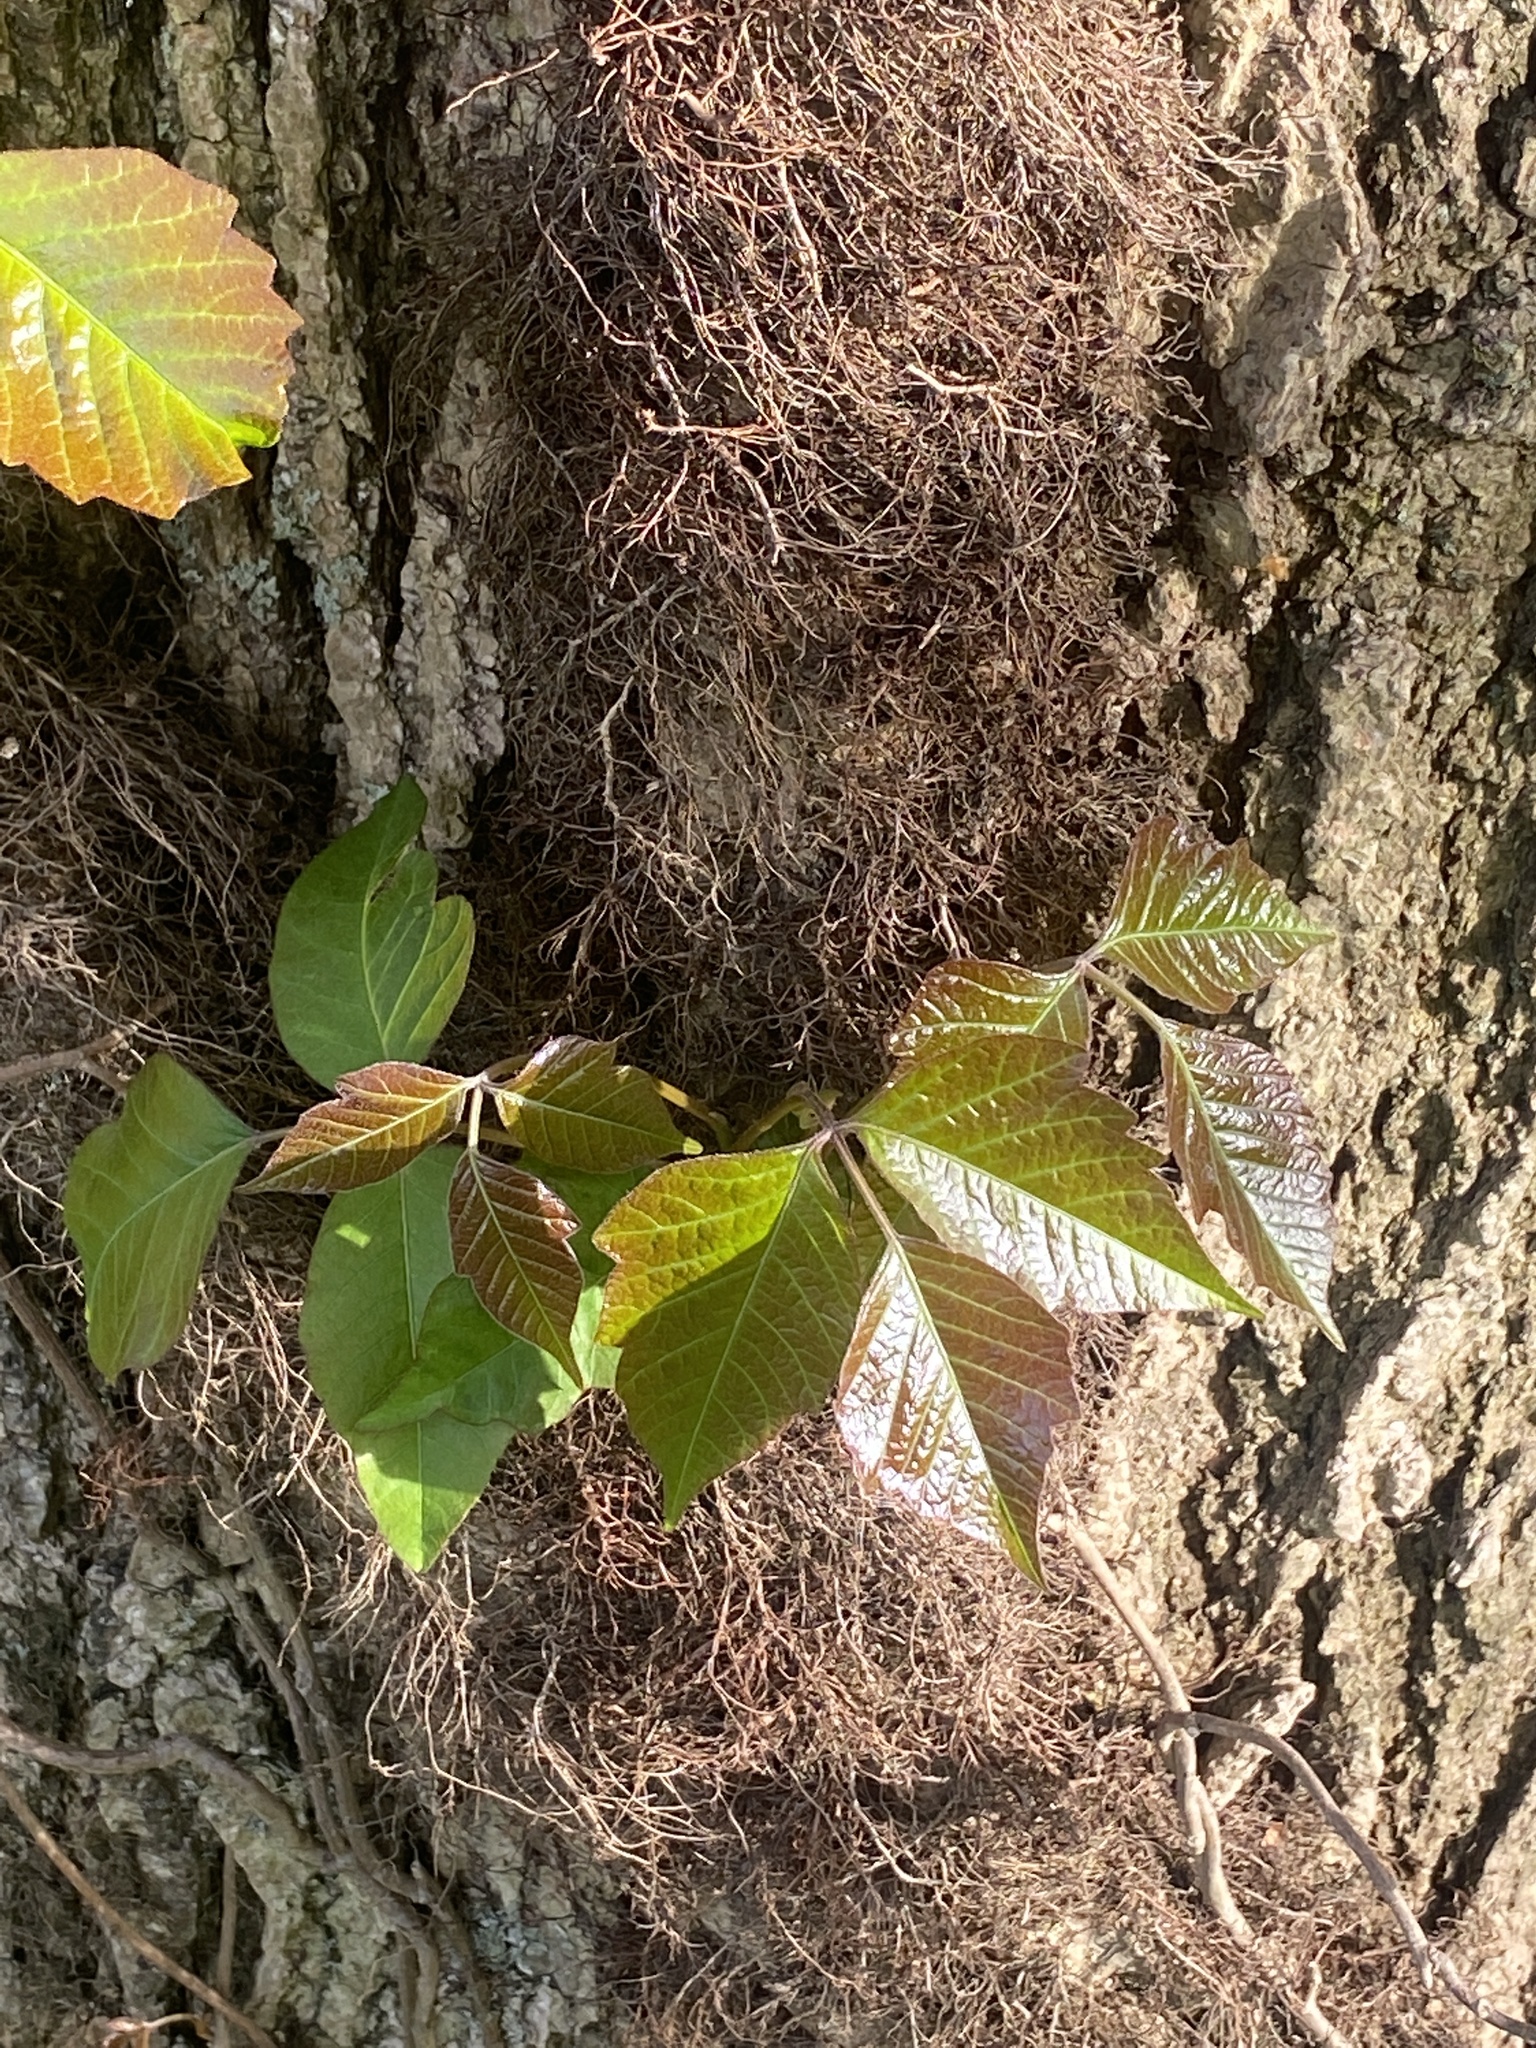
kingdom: Plantae
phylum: Tracheophyta
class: Magnoliopsida
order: Sapindales
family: Anacardiaceae
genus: Toxicodendron
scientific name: Toxicodendron radicans
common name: Poison ivy
